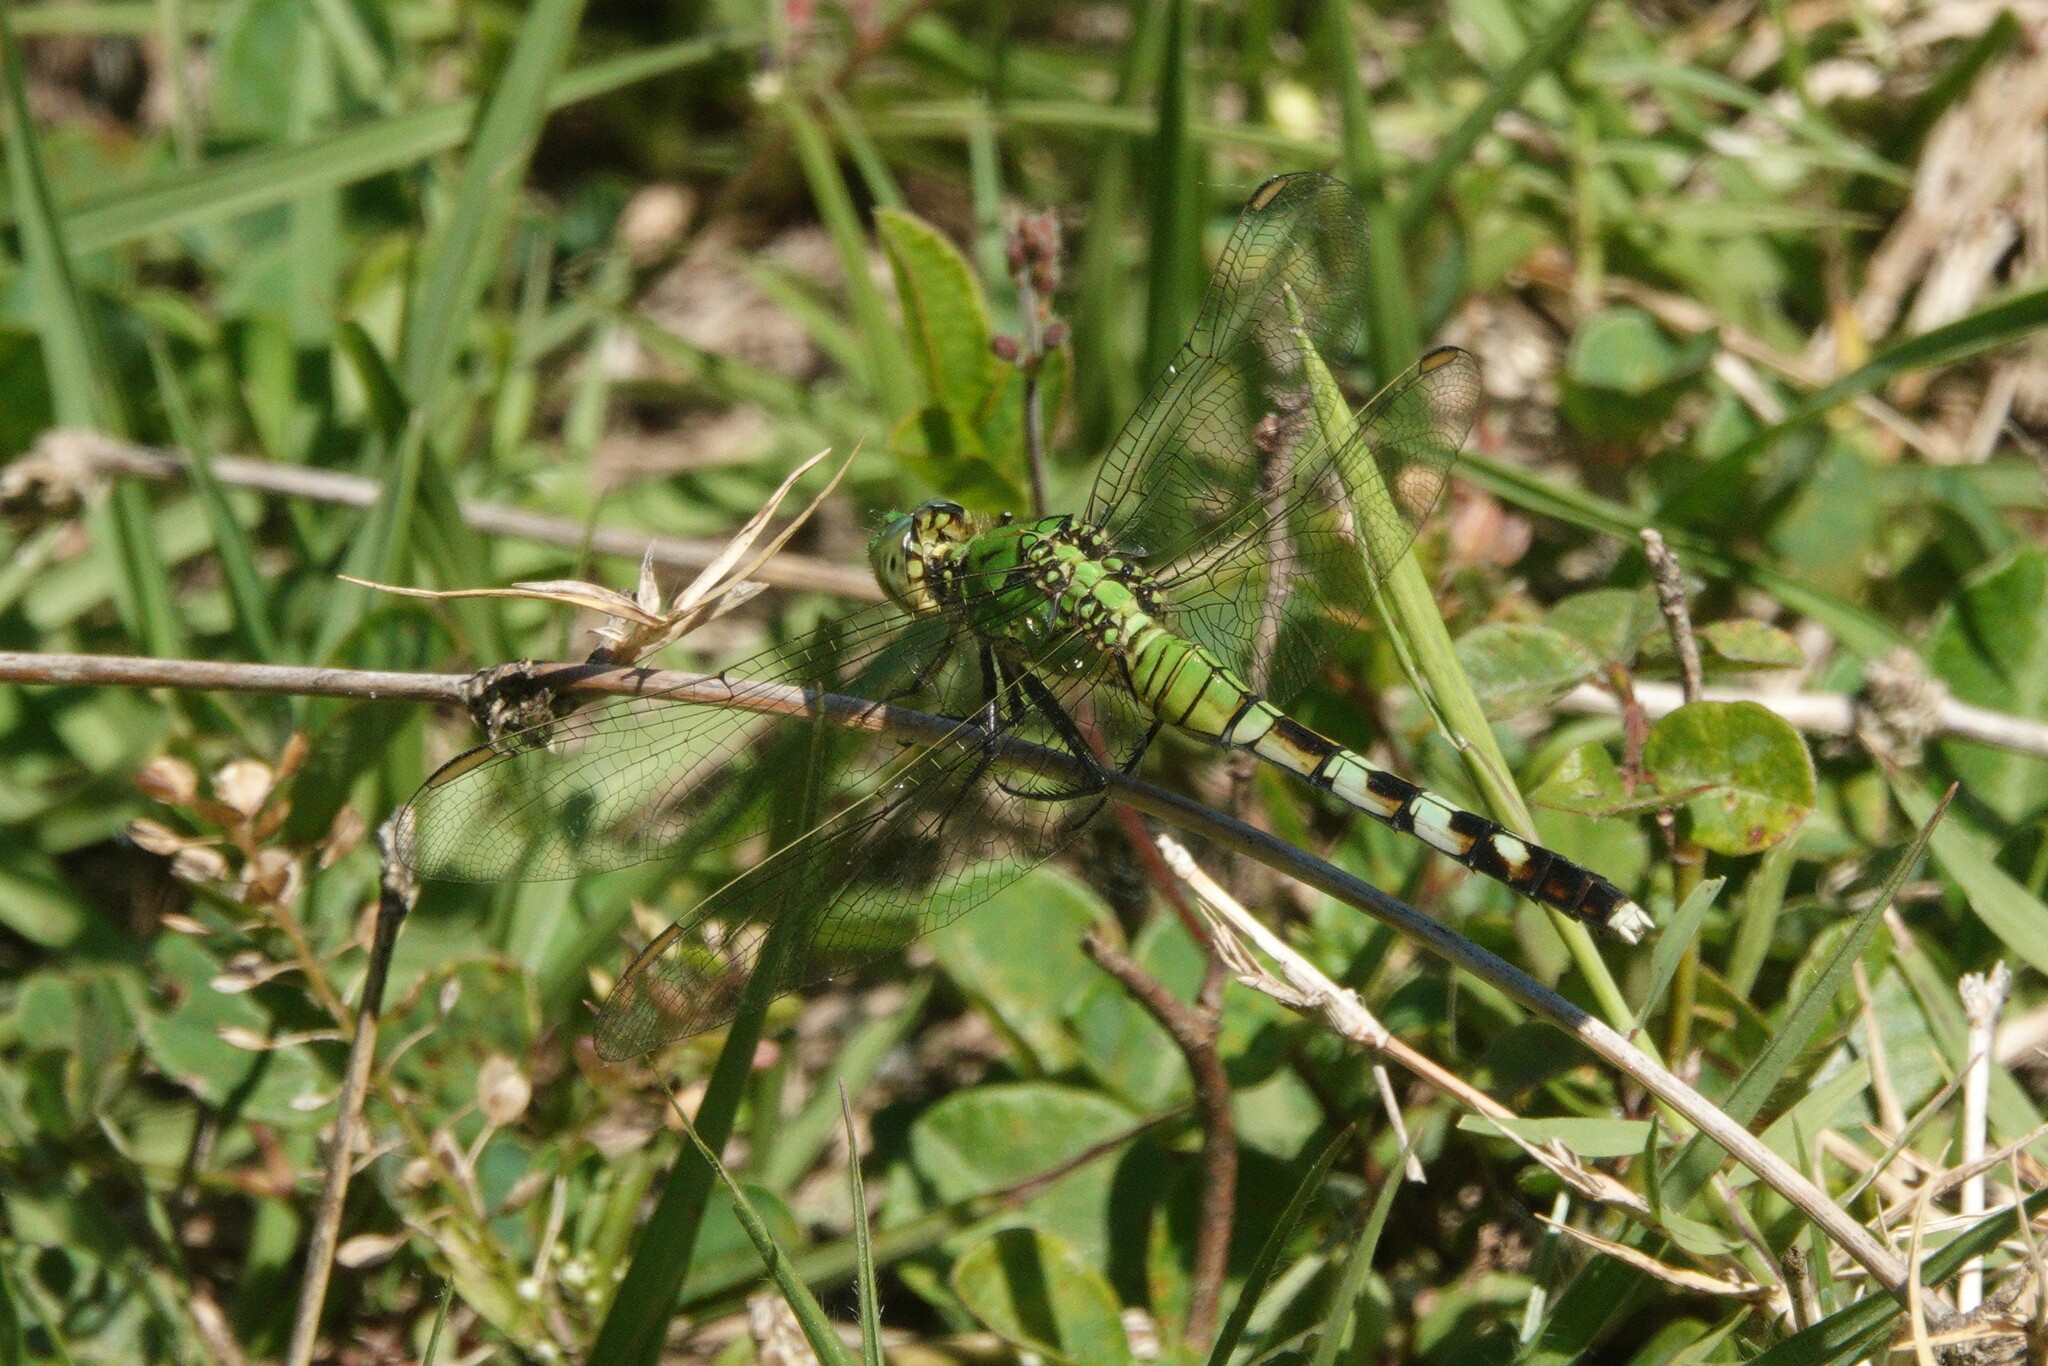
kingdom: Animalia
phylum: Arthropoda
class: Insecta
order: Odonata
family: Libellulidae
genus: Erythemis
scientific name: Erythemis simplicicollis
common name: Eastern pondhawk
